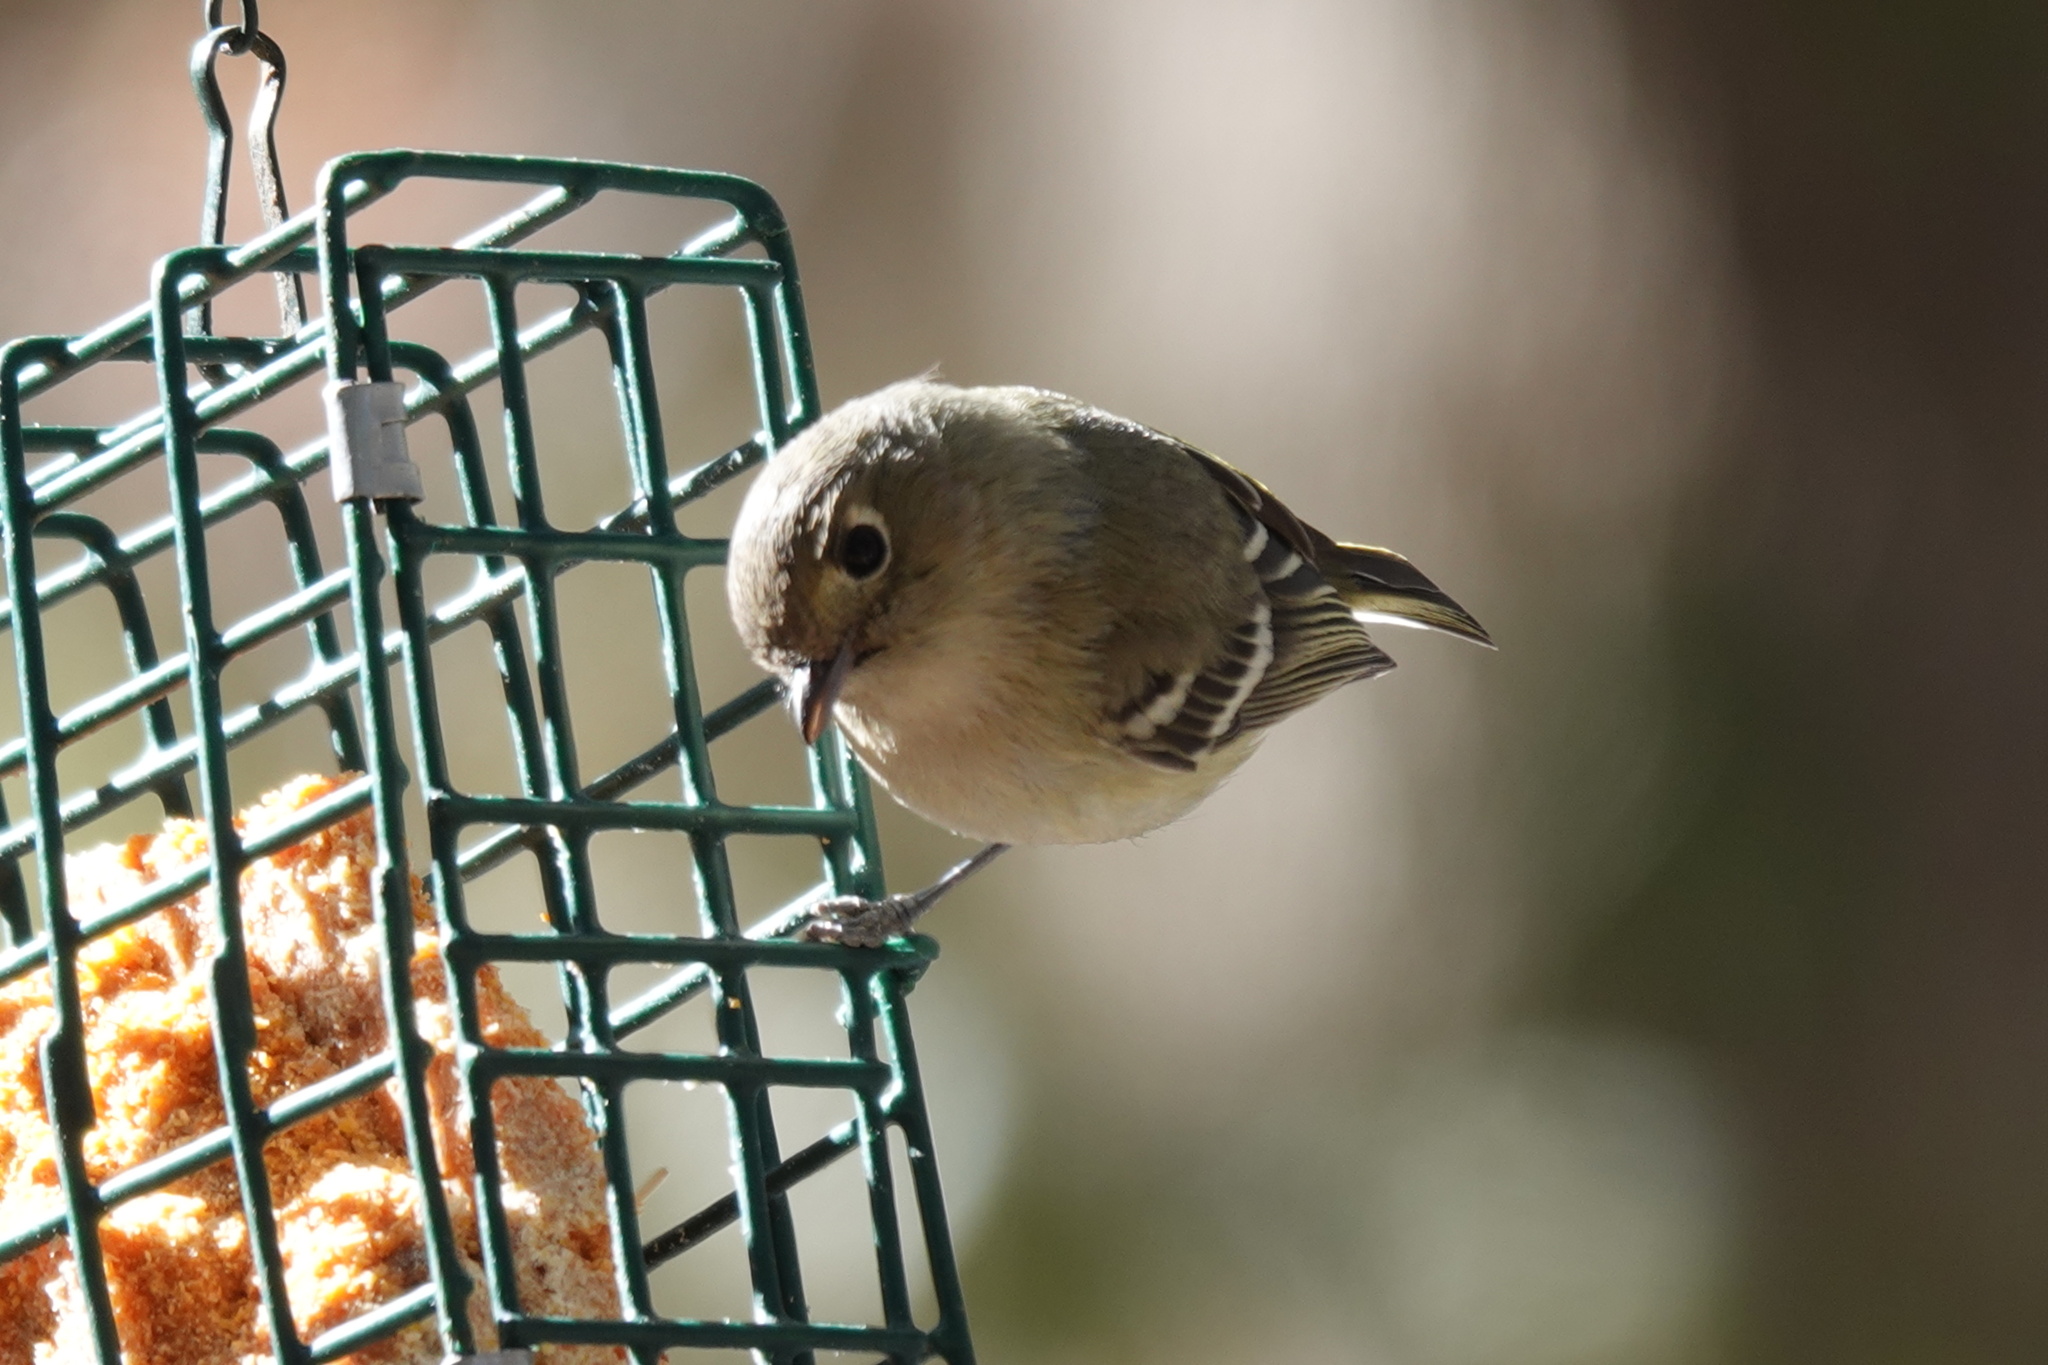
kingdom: Animalia
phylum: Chordata
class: Aves
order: Passeriformes
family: Vireonidae
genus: Vireo
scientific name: Vireo huttoni
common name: Hutton's vireo
